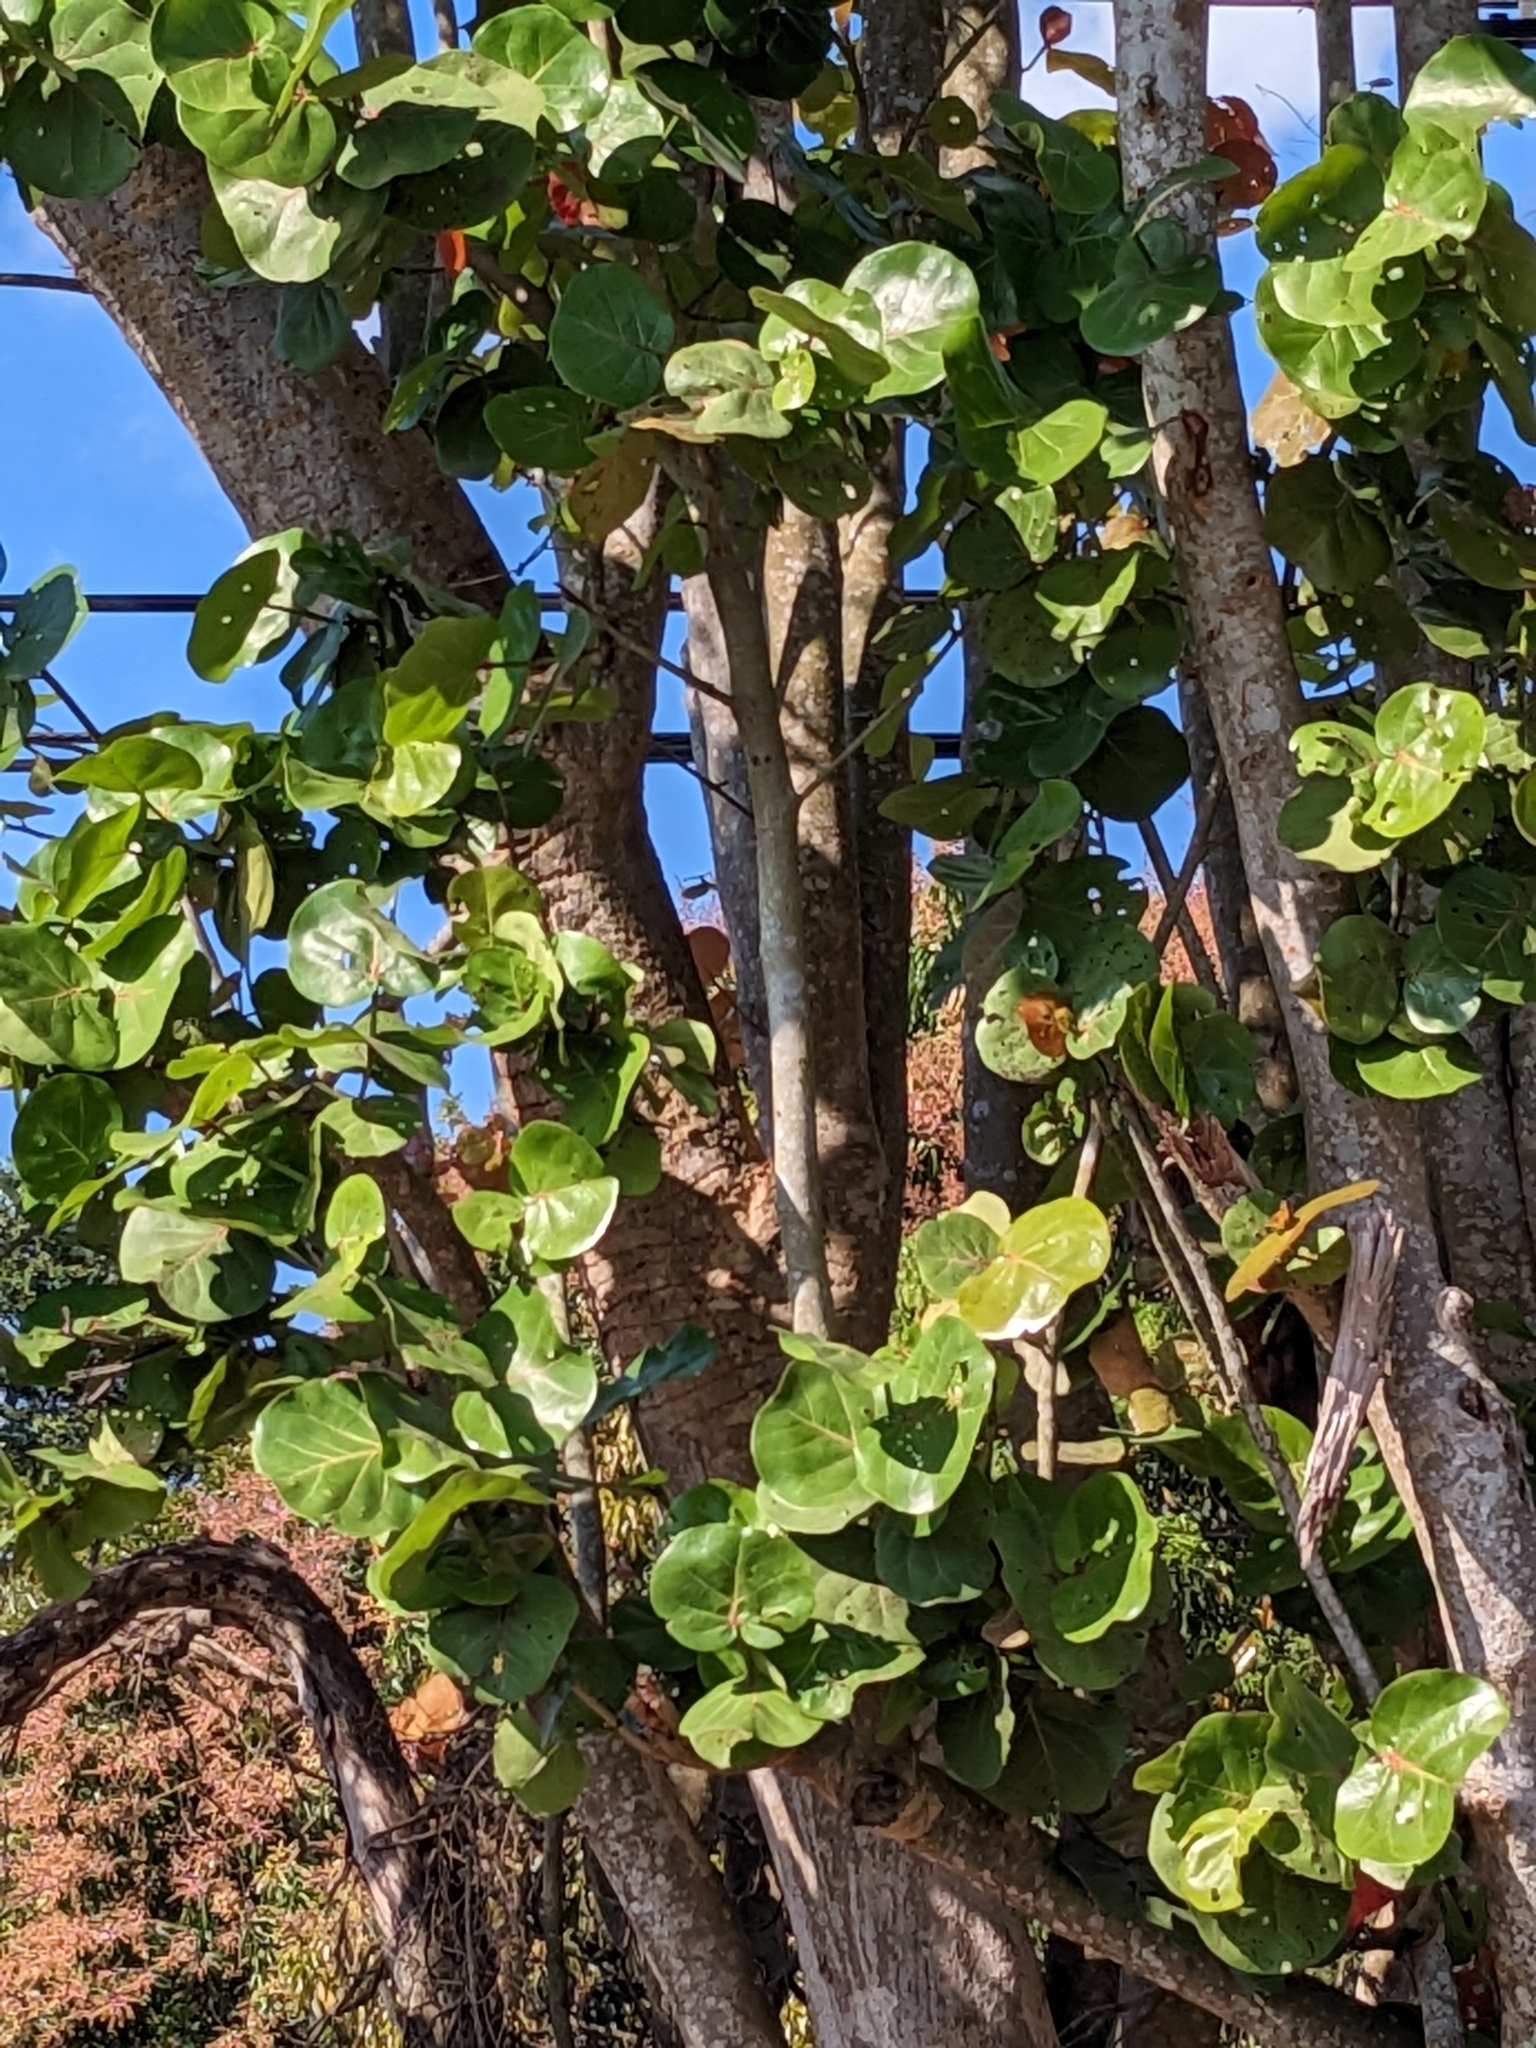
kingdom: Plantae
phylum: Tracheophyta
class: Magnoliopsida
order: Caryophyllales
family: Polygonaceae
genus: Coccoloba
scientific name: Coccoloba uvifera
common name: Seagrape
